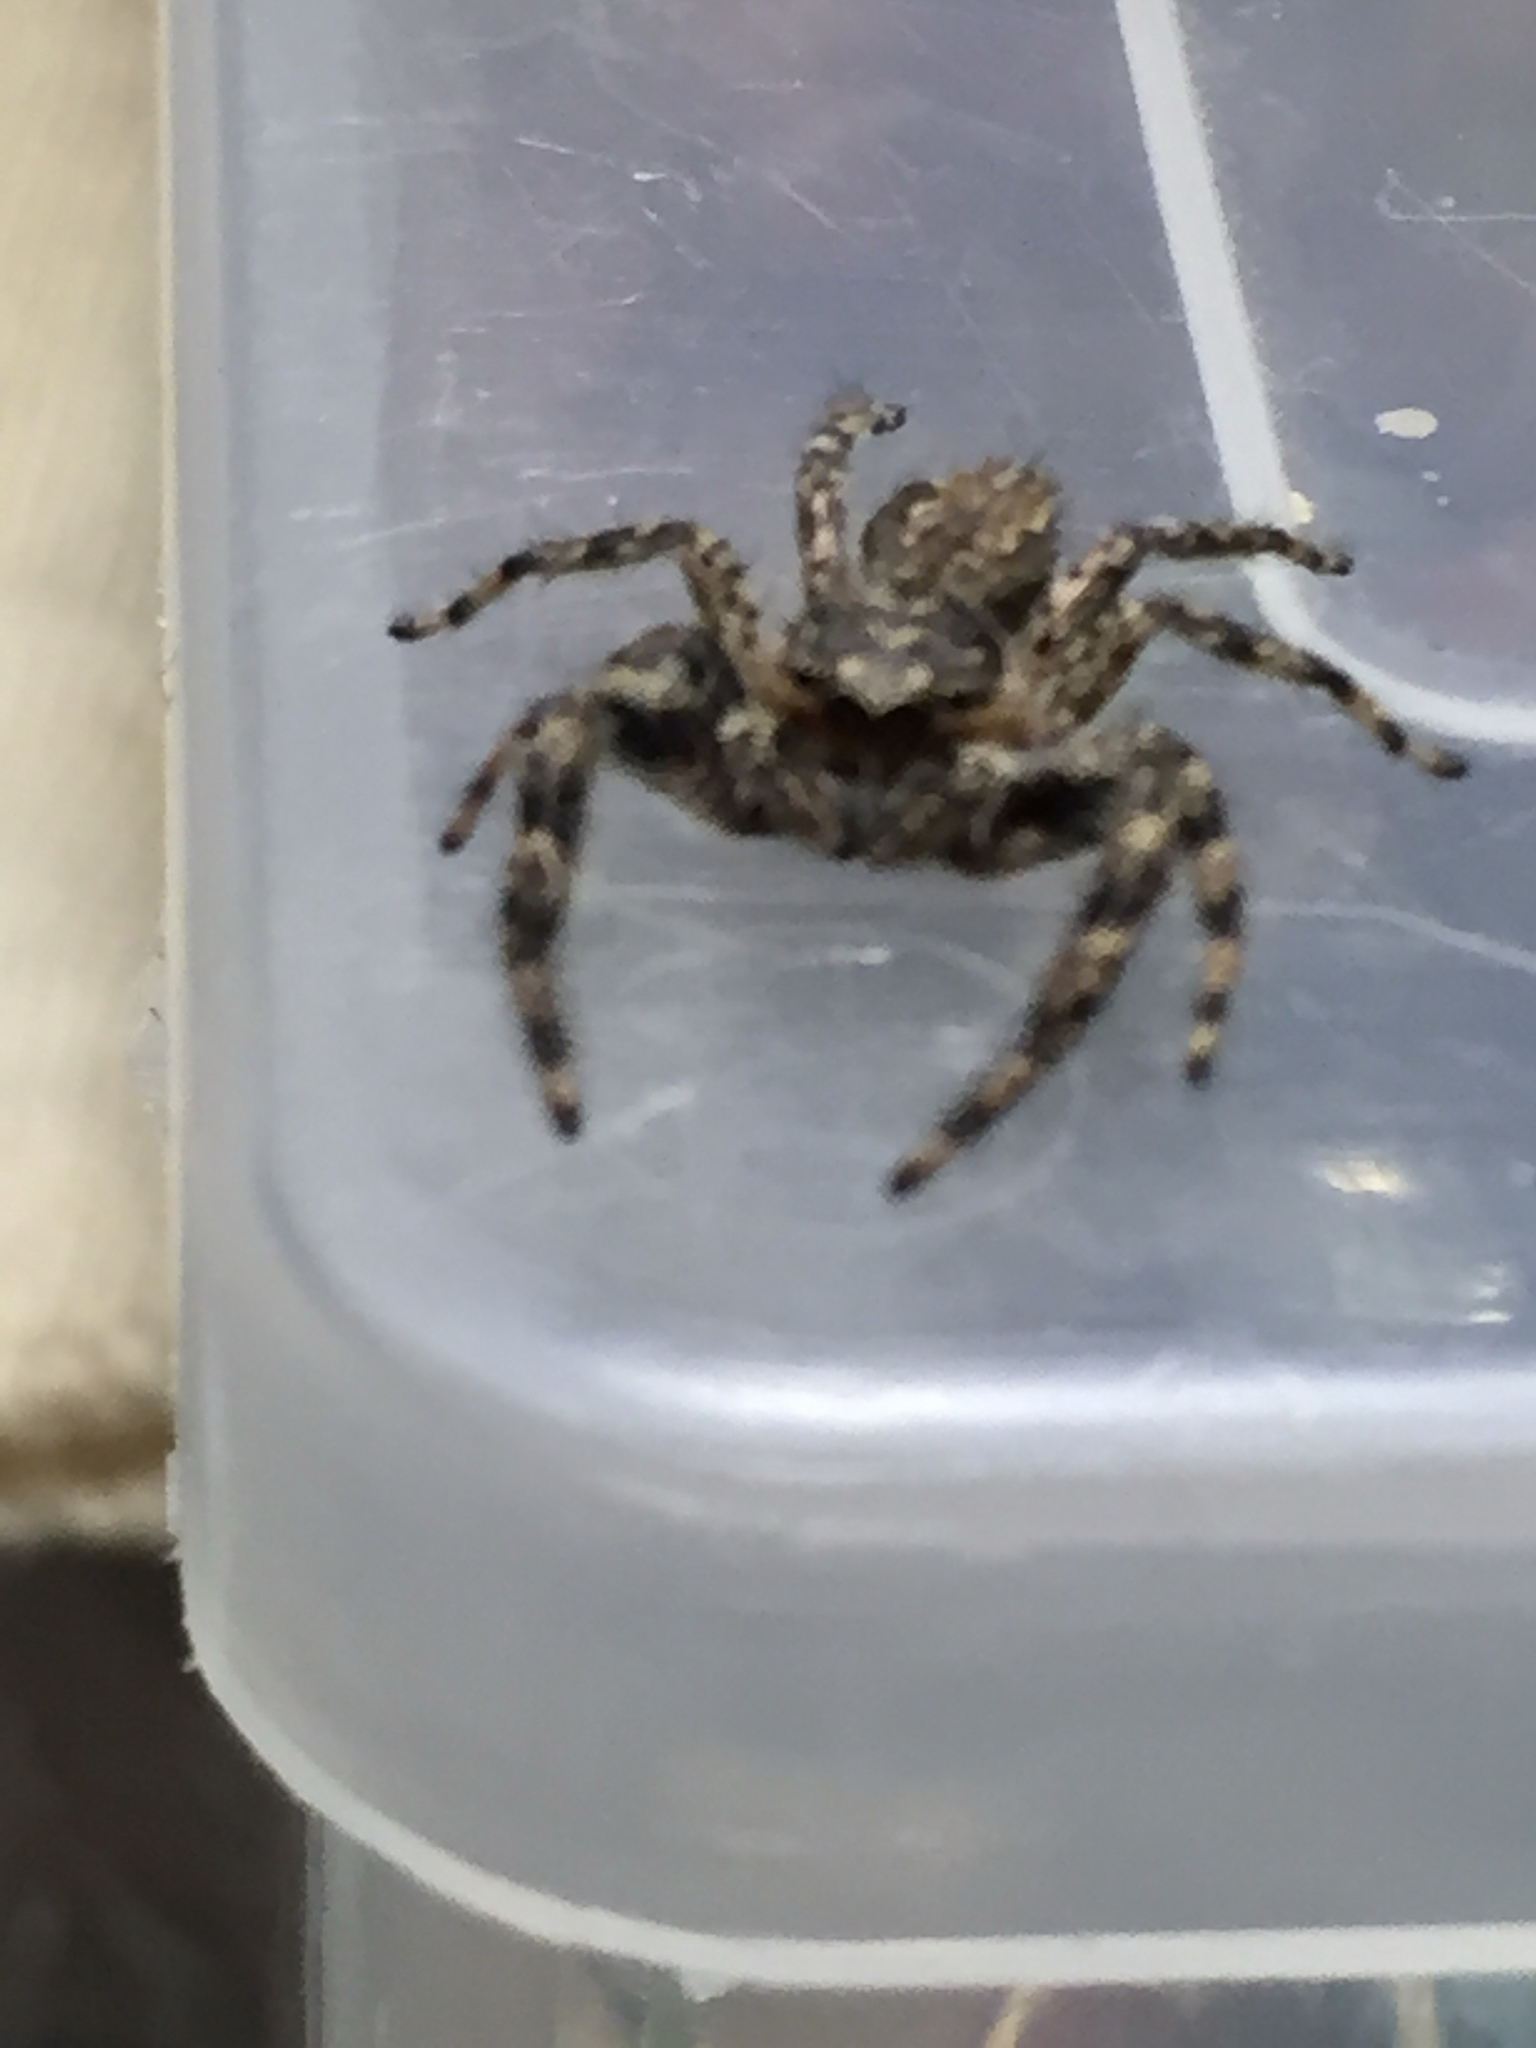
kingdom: Animalia
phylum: Arthropoda
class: Arachnida
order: Araneae
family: Salticidae
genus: Platycryptus
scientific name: Platycryptus undatus
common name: Tan jumping spider
